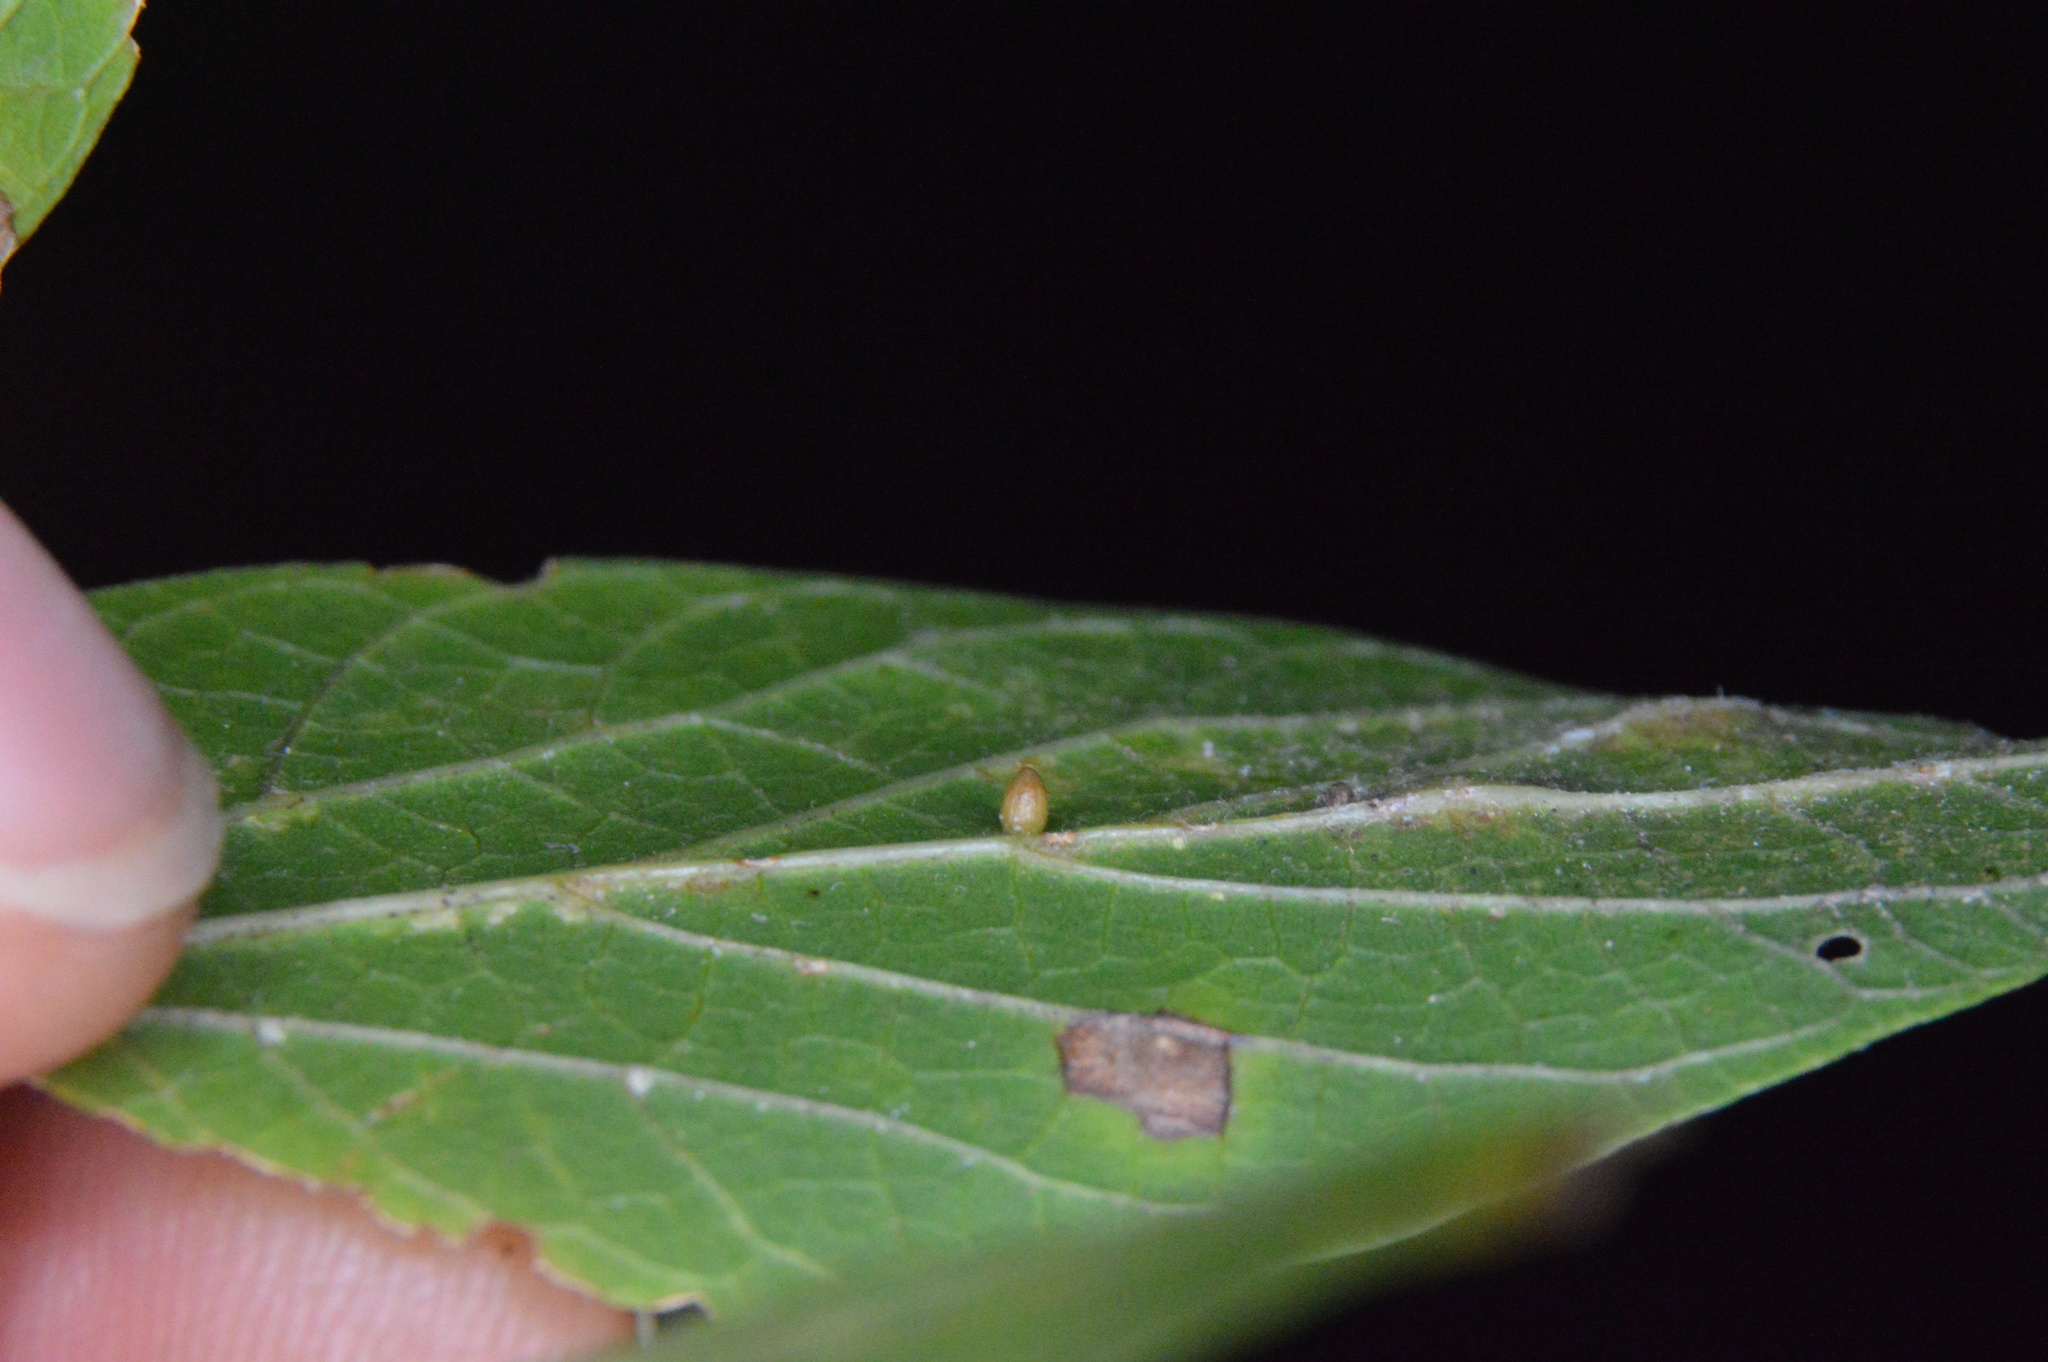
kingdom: Animalia
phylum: Arthropoda
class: Insecta
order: Diptera
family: Cecidomyiidae
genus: Celticecis
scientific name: Celticecis cupiformis
